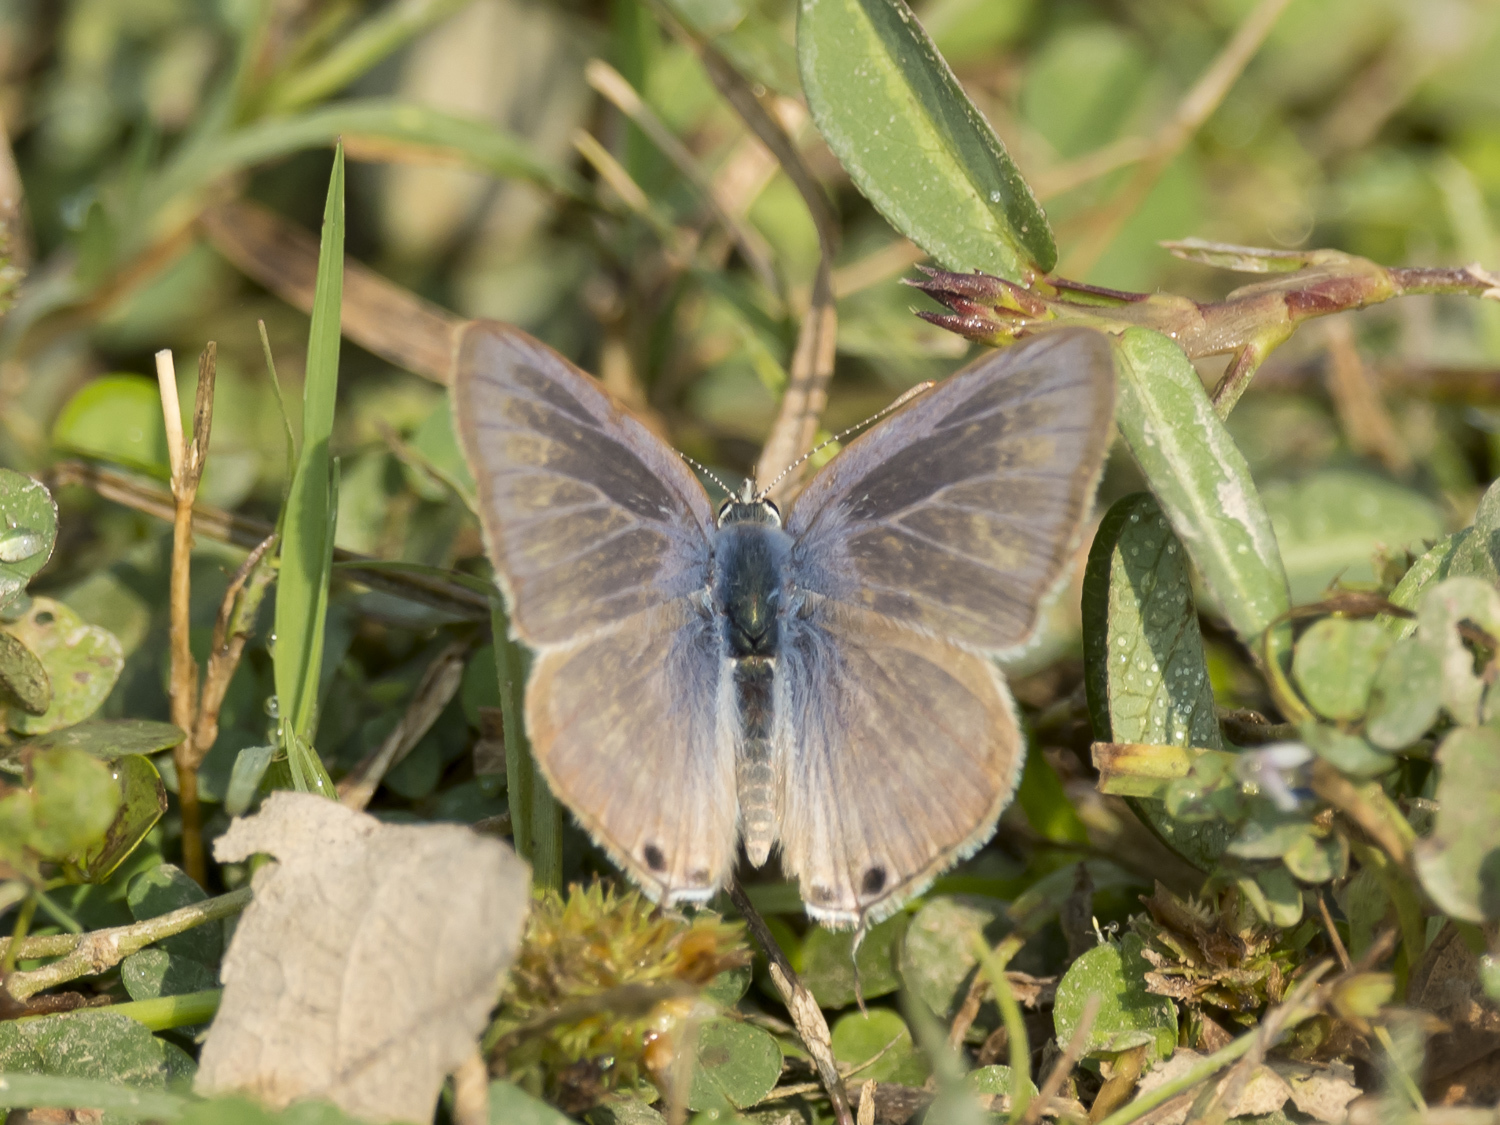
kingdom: Animalia
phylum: Arthropoda
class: Insecta
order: Lepidoptera
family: Lycaenidae
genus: Lampides
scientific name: Lampides boeticus
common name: Long-tailed blue
